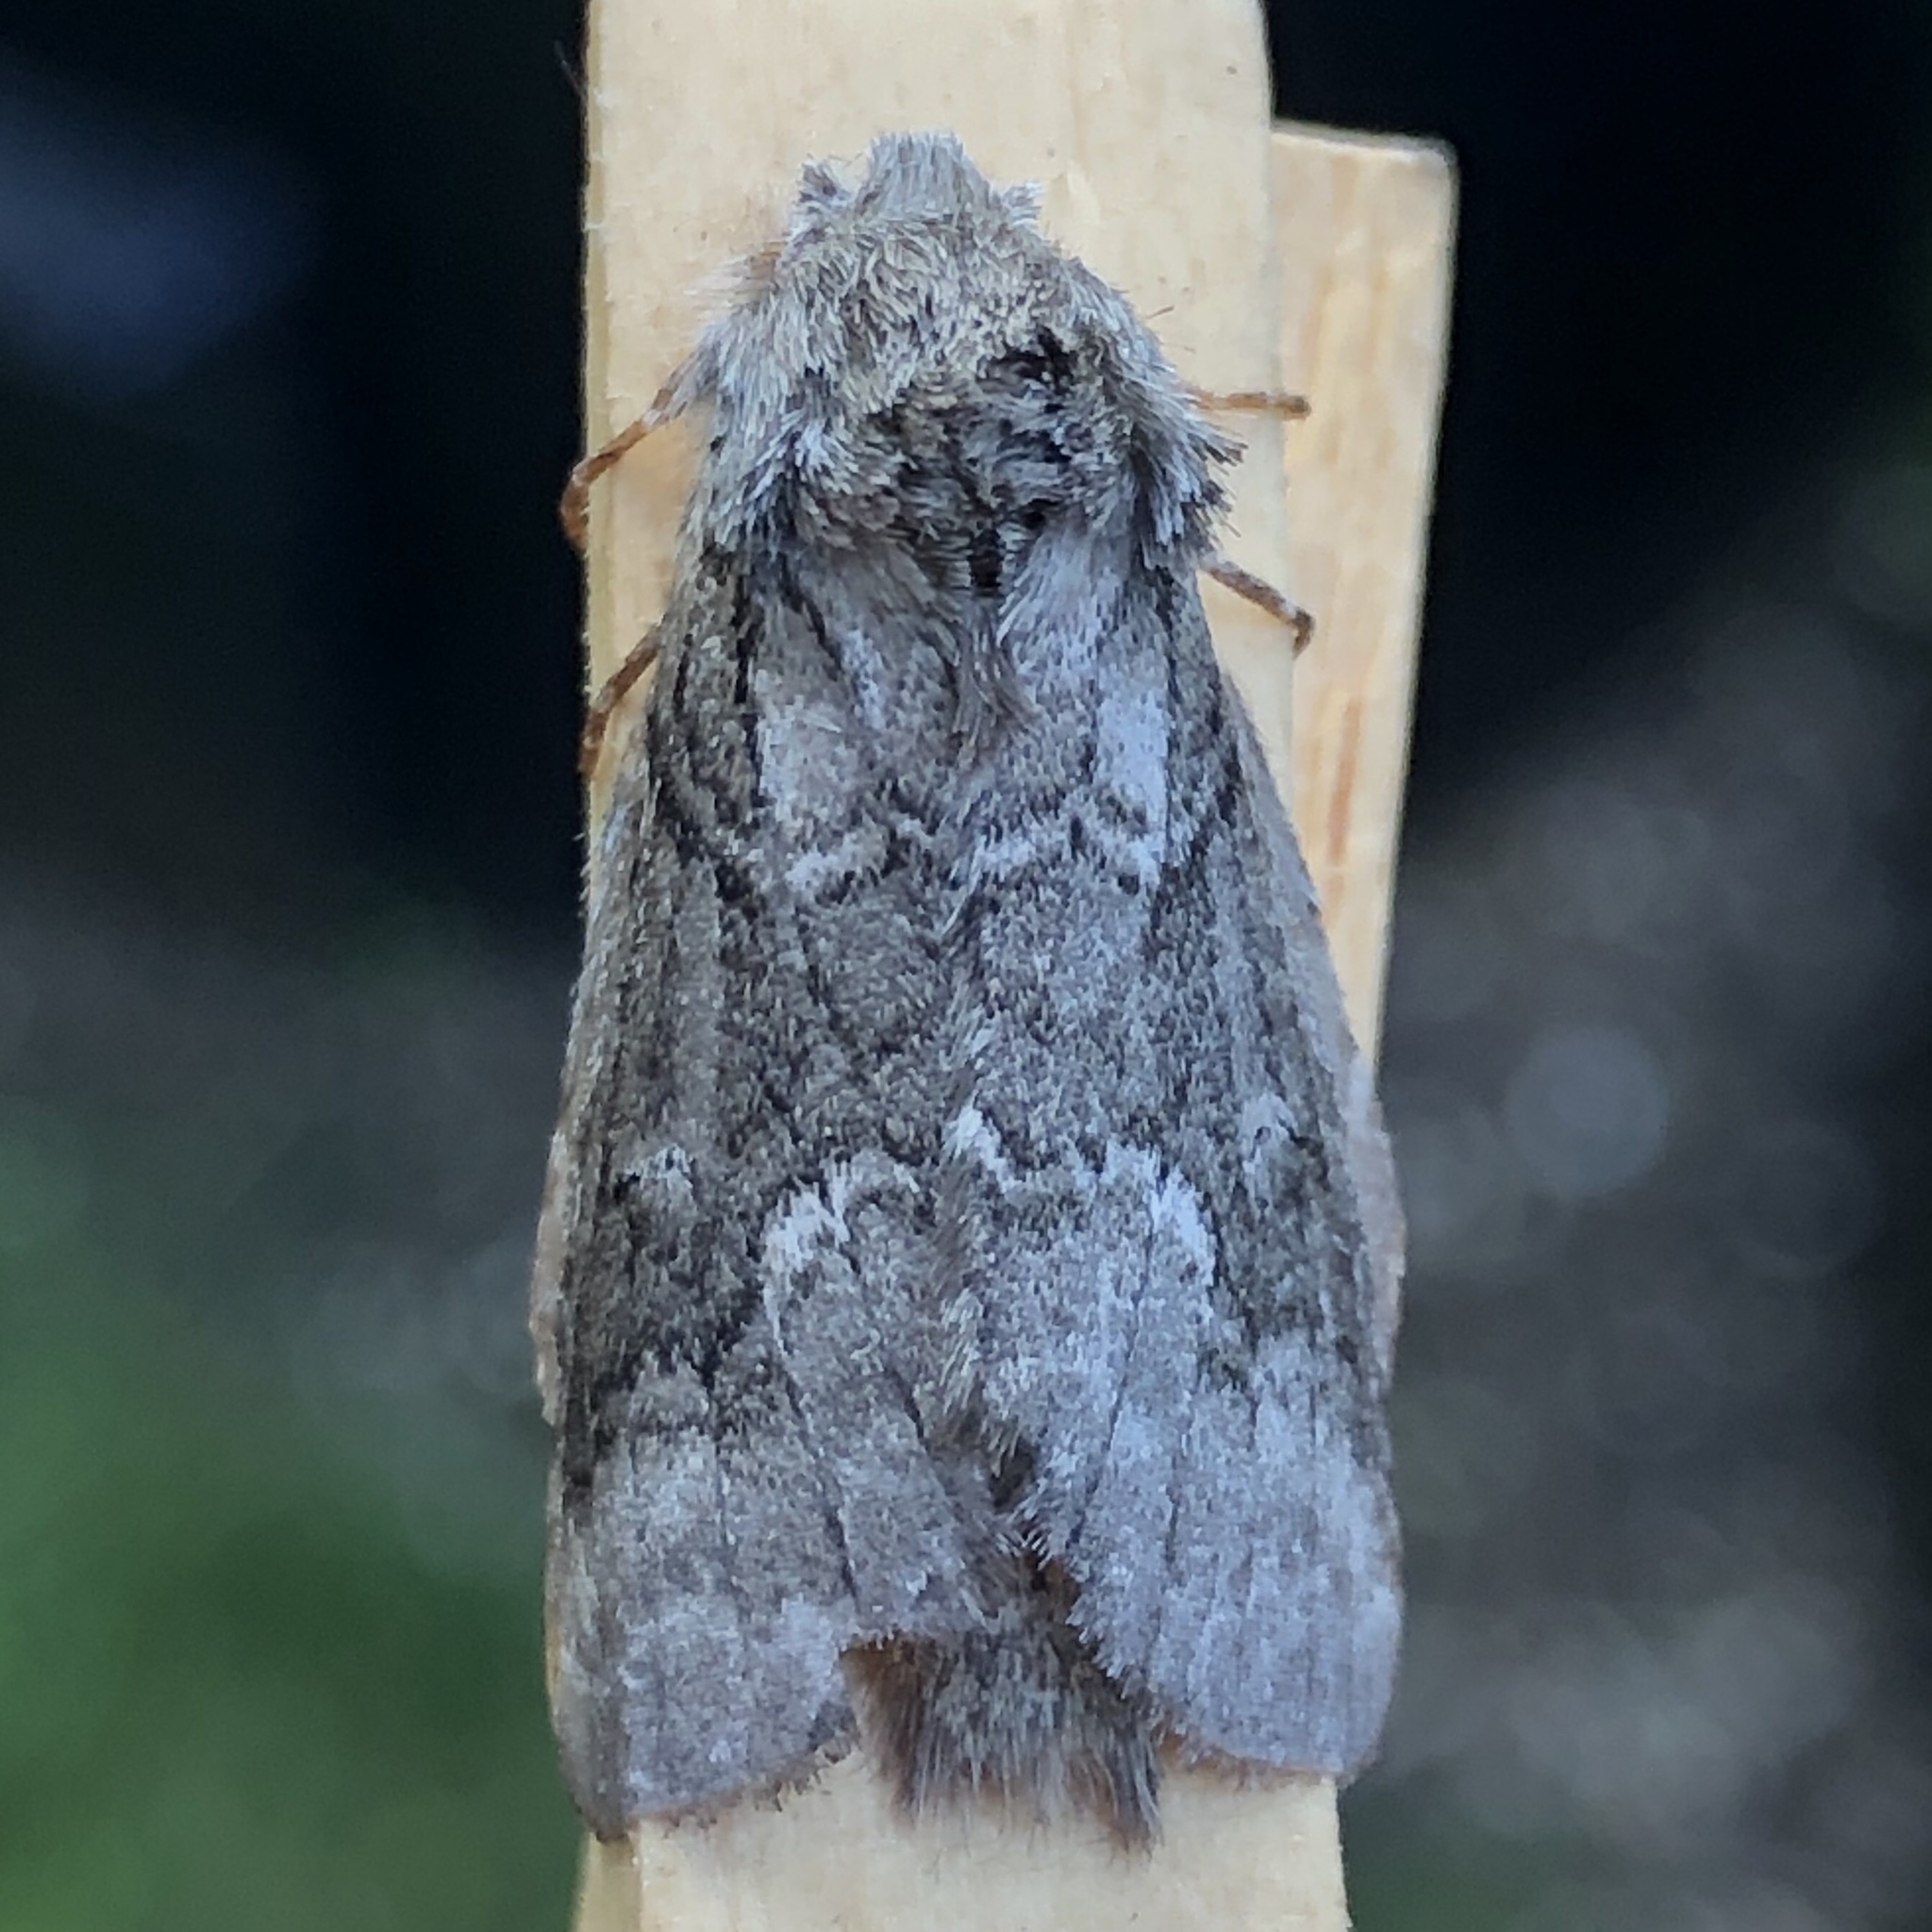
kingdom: Animalia
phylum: Arthropoda
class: Insecta
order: Lepidoptera
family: Notodontidae
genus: Lochmaeus
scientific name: Lochmaeus bilineata
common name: Double-lined prominent
